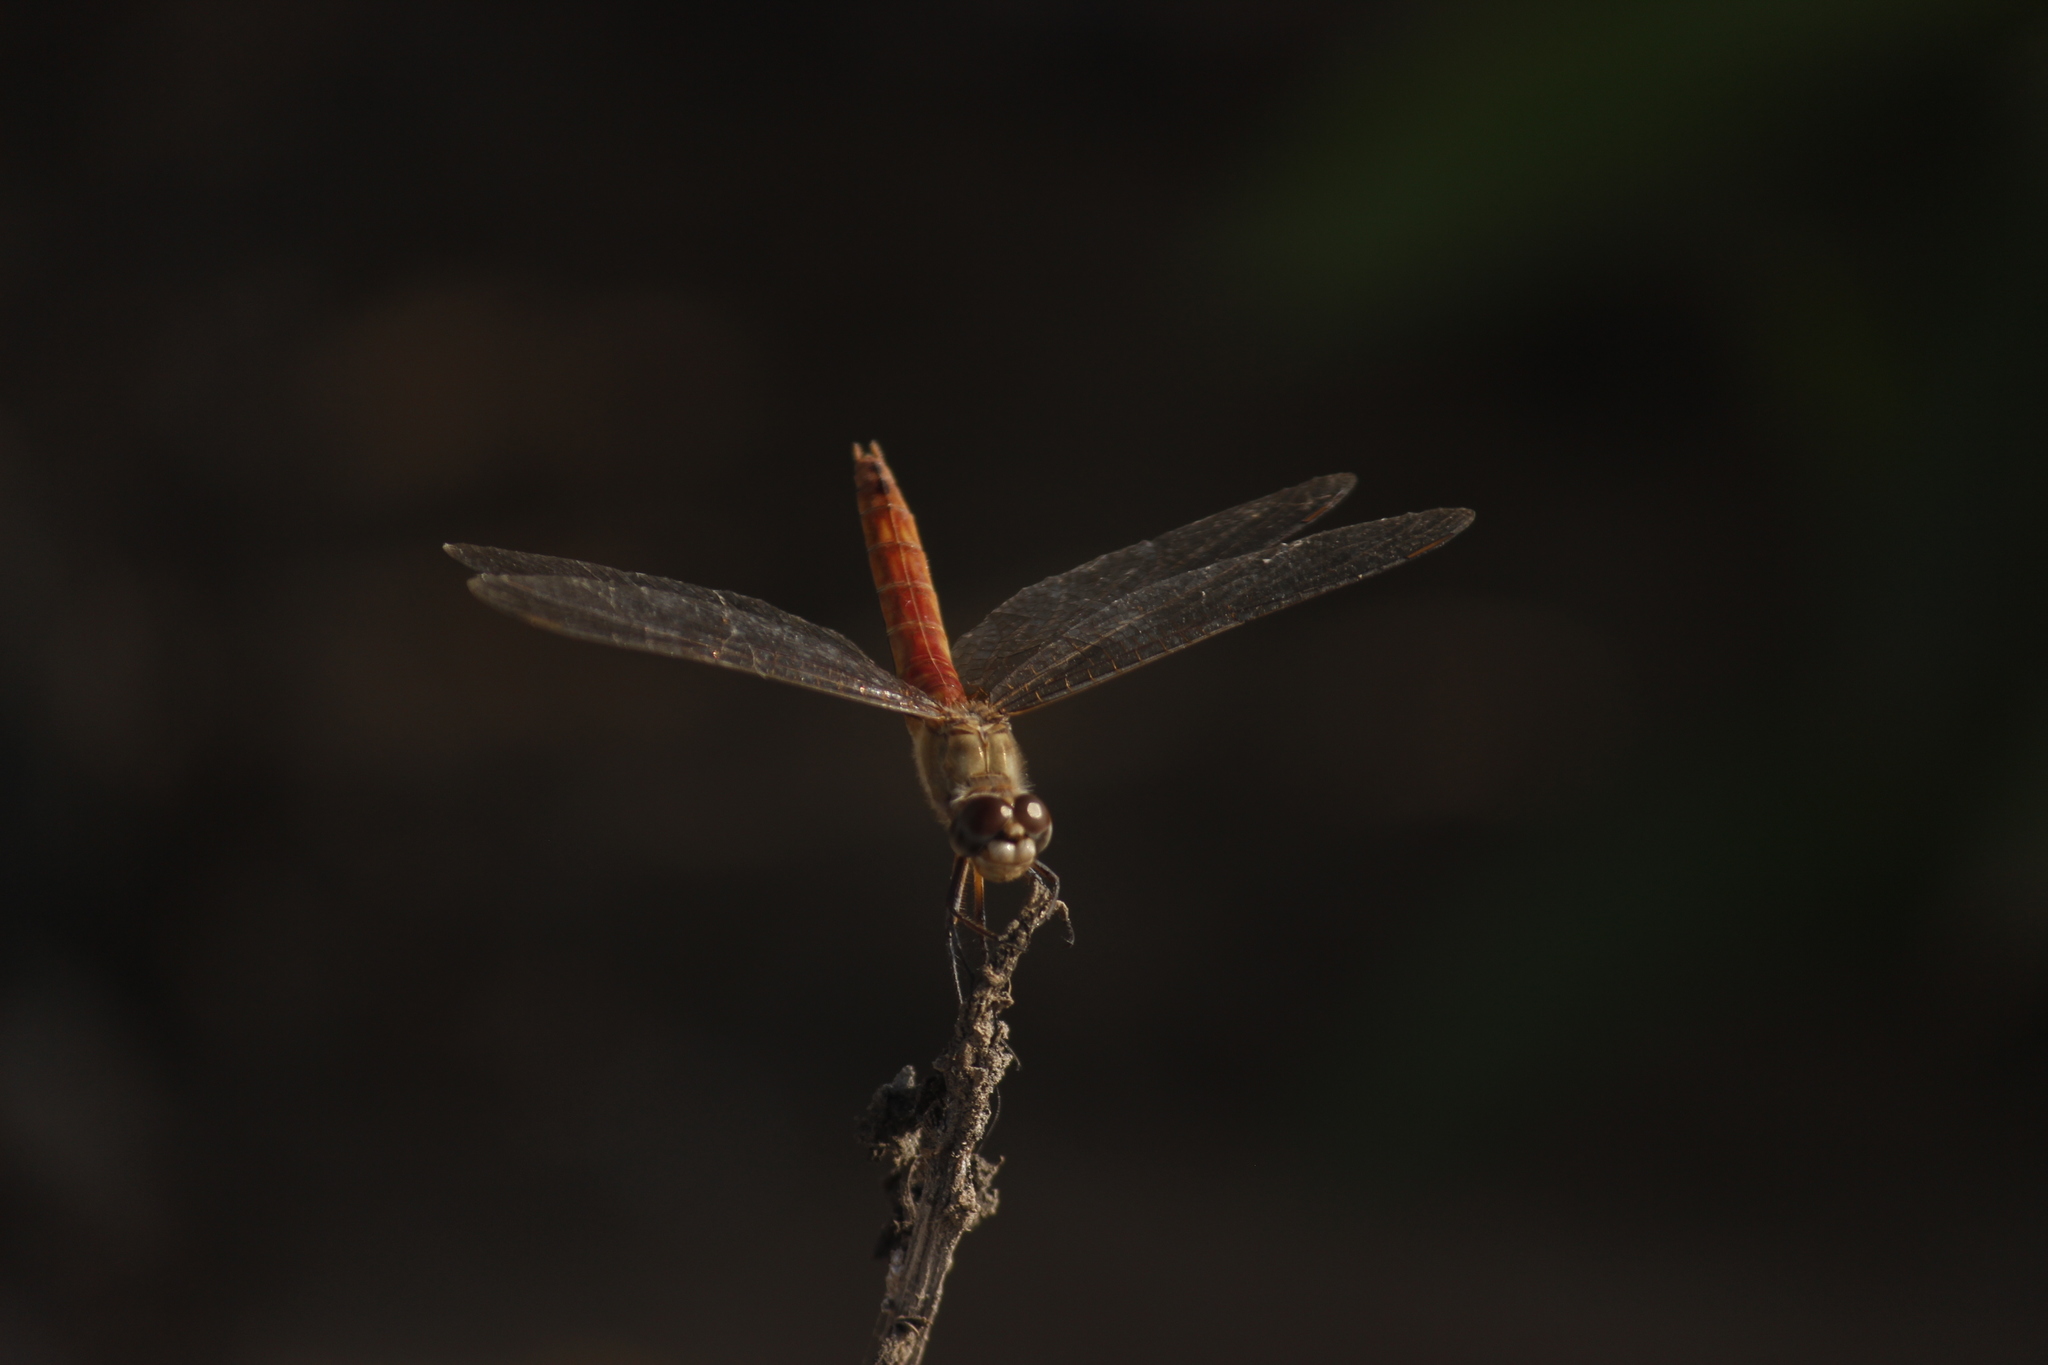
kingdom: Animalia
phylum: Arthropoda
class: Insecta
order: Odonata
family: Libellulidae
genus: Brachymesia
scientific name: Brachymesia furcata
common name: Red-taled pennant
